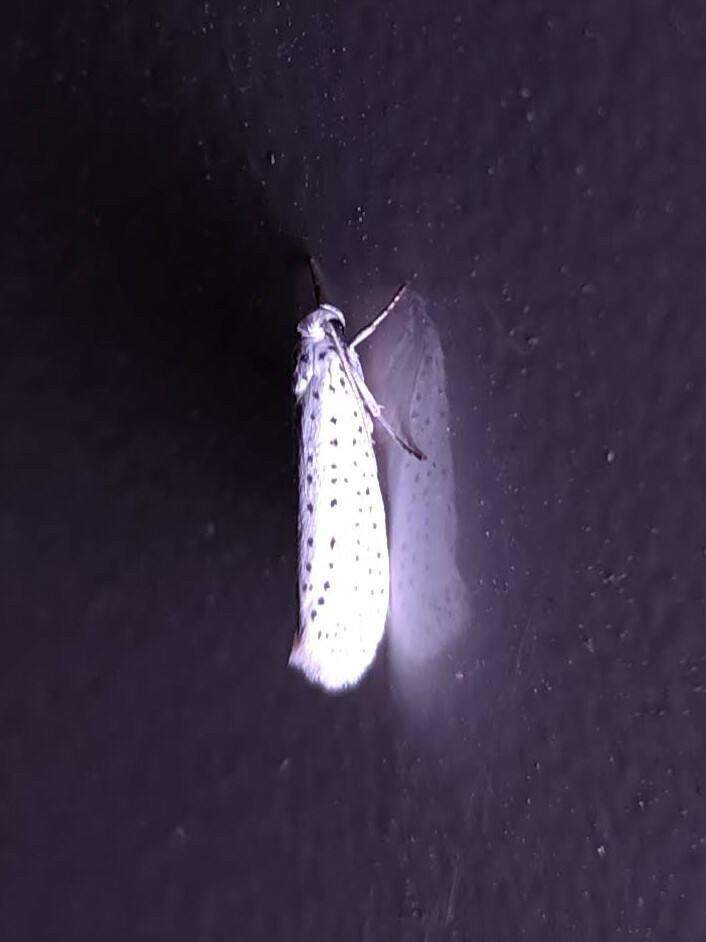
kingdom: Animalia
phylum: Arthropoda
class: Insecta
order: Lepidoptera
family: Yponomeutidae
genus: Yponomeuta
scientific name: Yponomeuta evonymella
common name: Bird-cherry ermine
